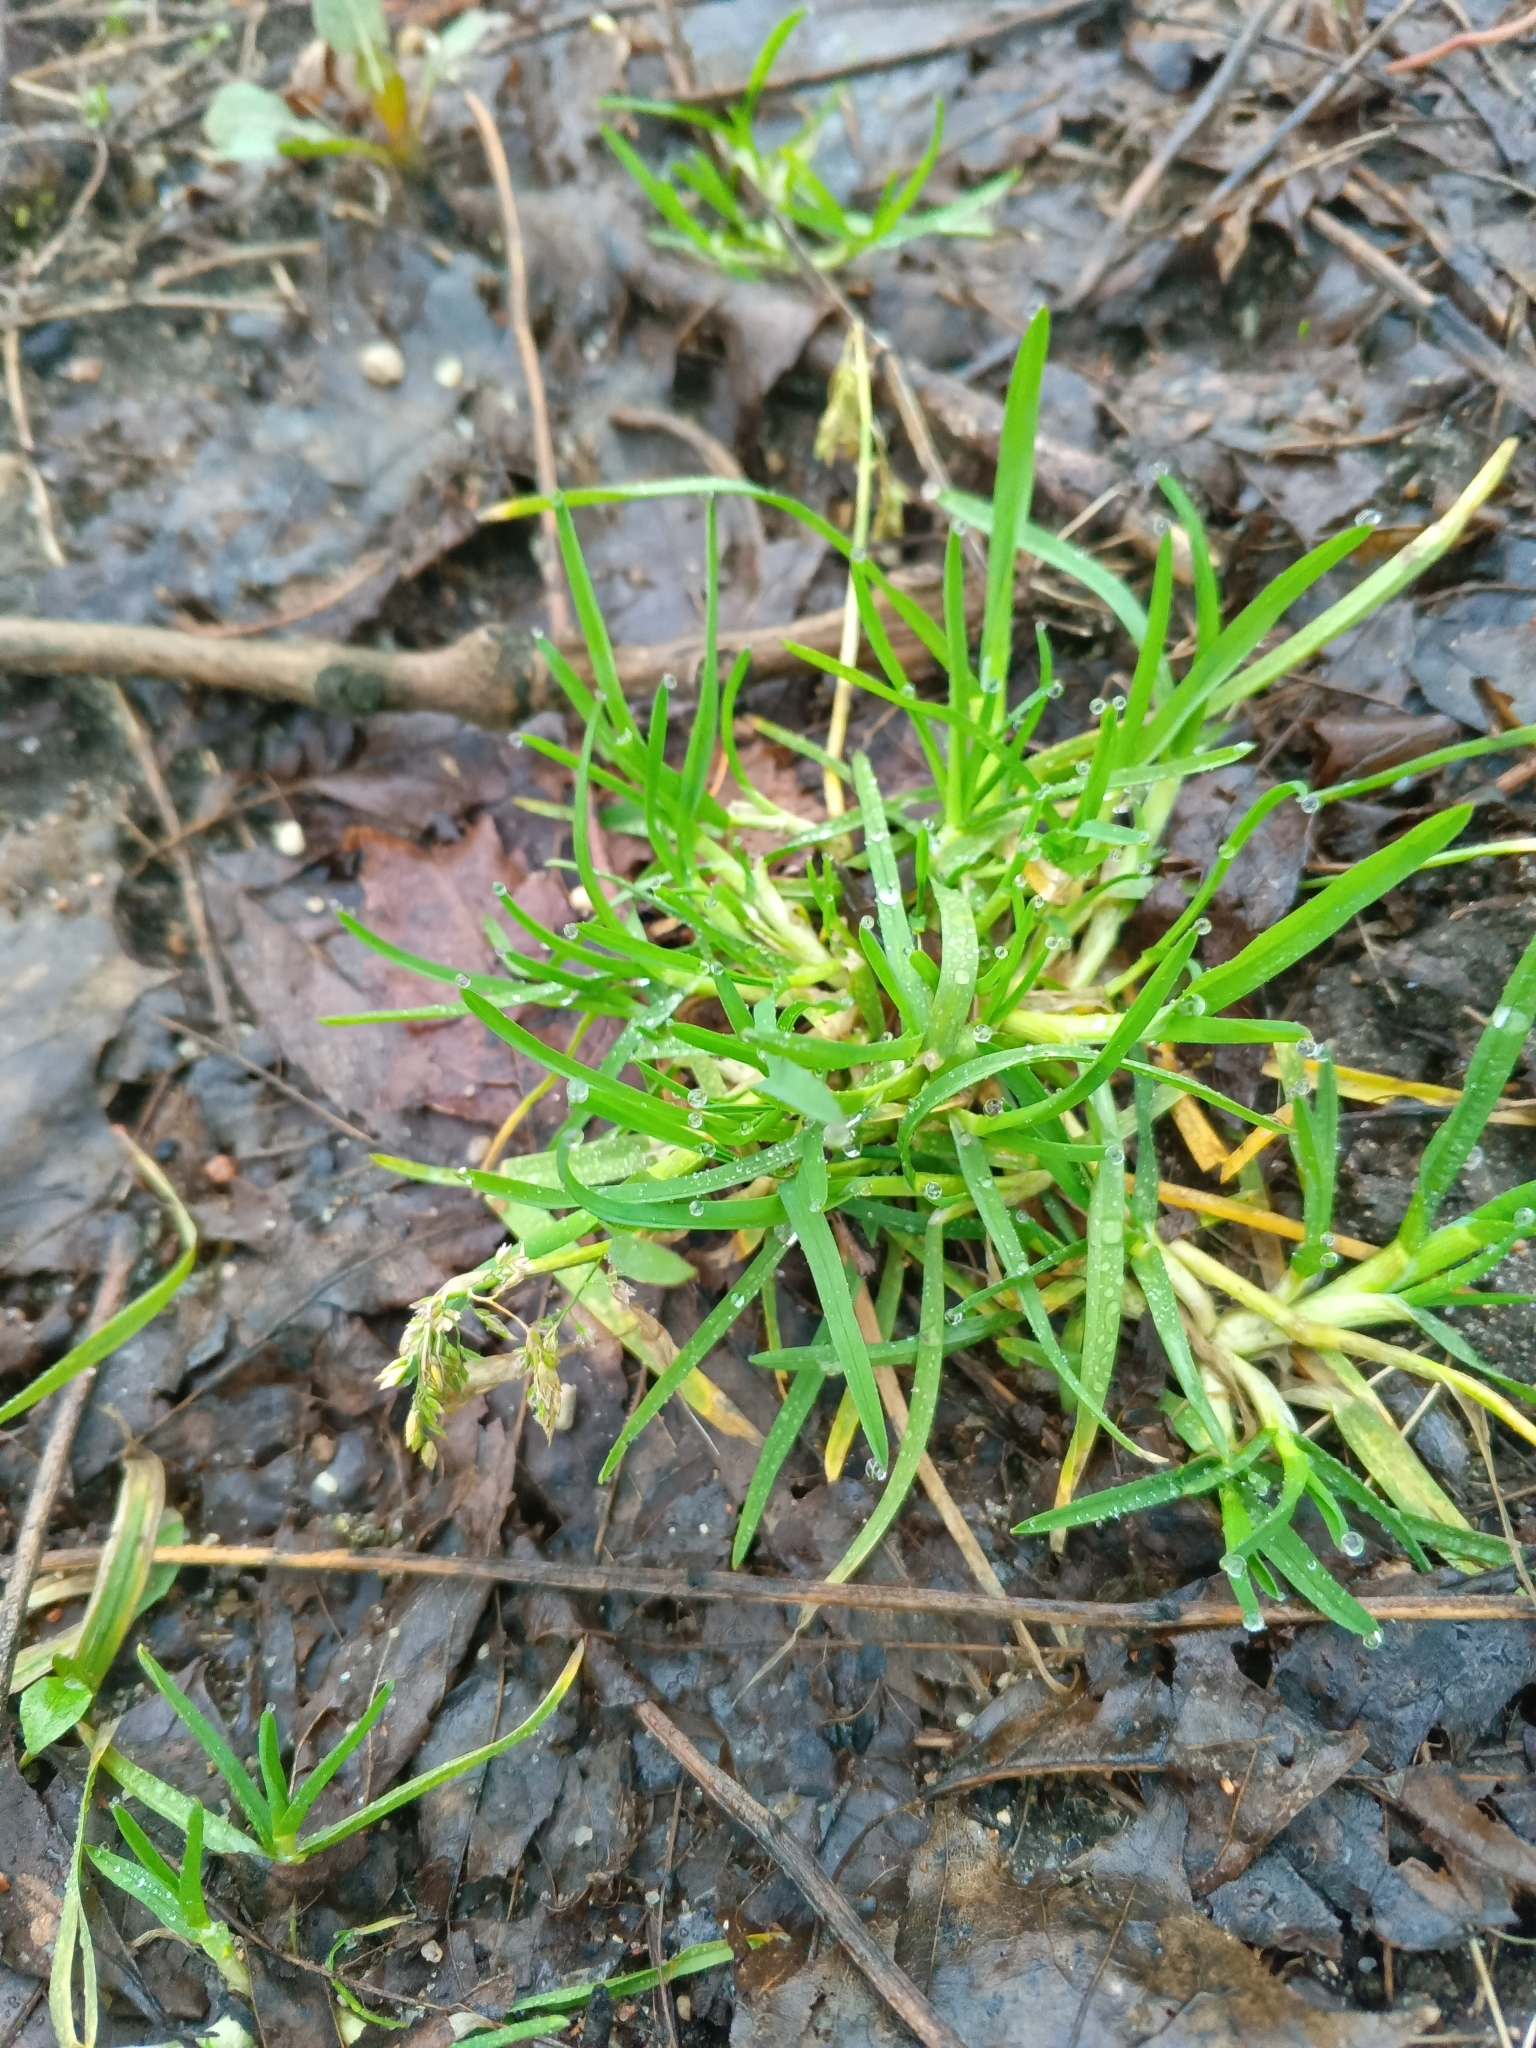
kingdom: Plantae
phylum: Tracheophyta
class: Liliopsida
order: Poales
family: Poaceae
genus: Poa
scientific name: Poa annua
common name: Annual bluegrass
